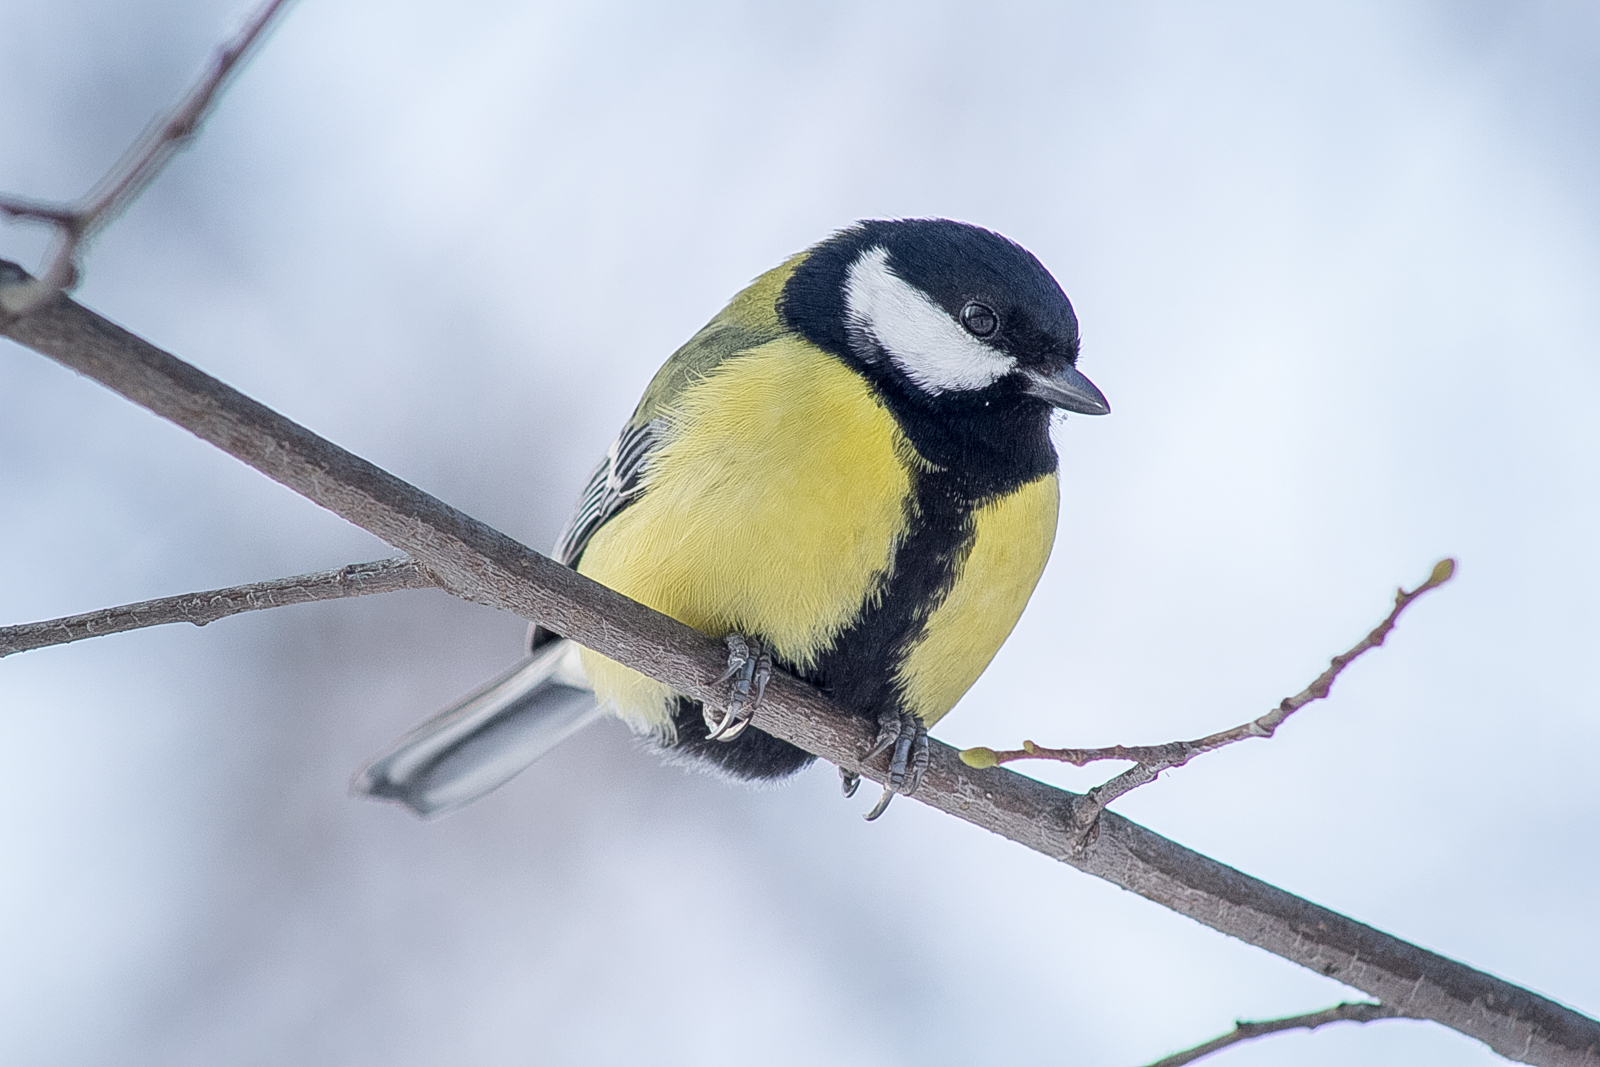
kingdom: Animalia
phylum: Chordata
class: Aves
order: Passeriformes
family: Paridae
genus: Parus
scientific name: Parus major
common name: Great tit
